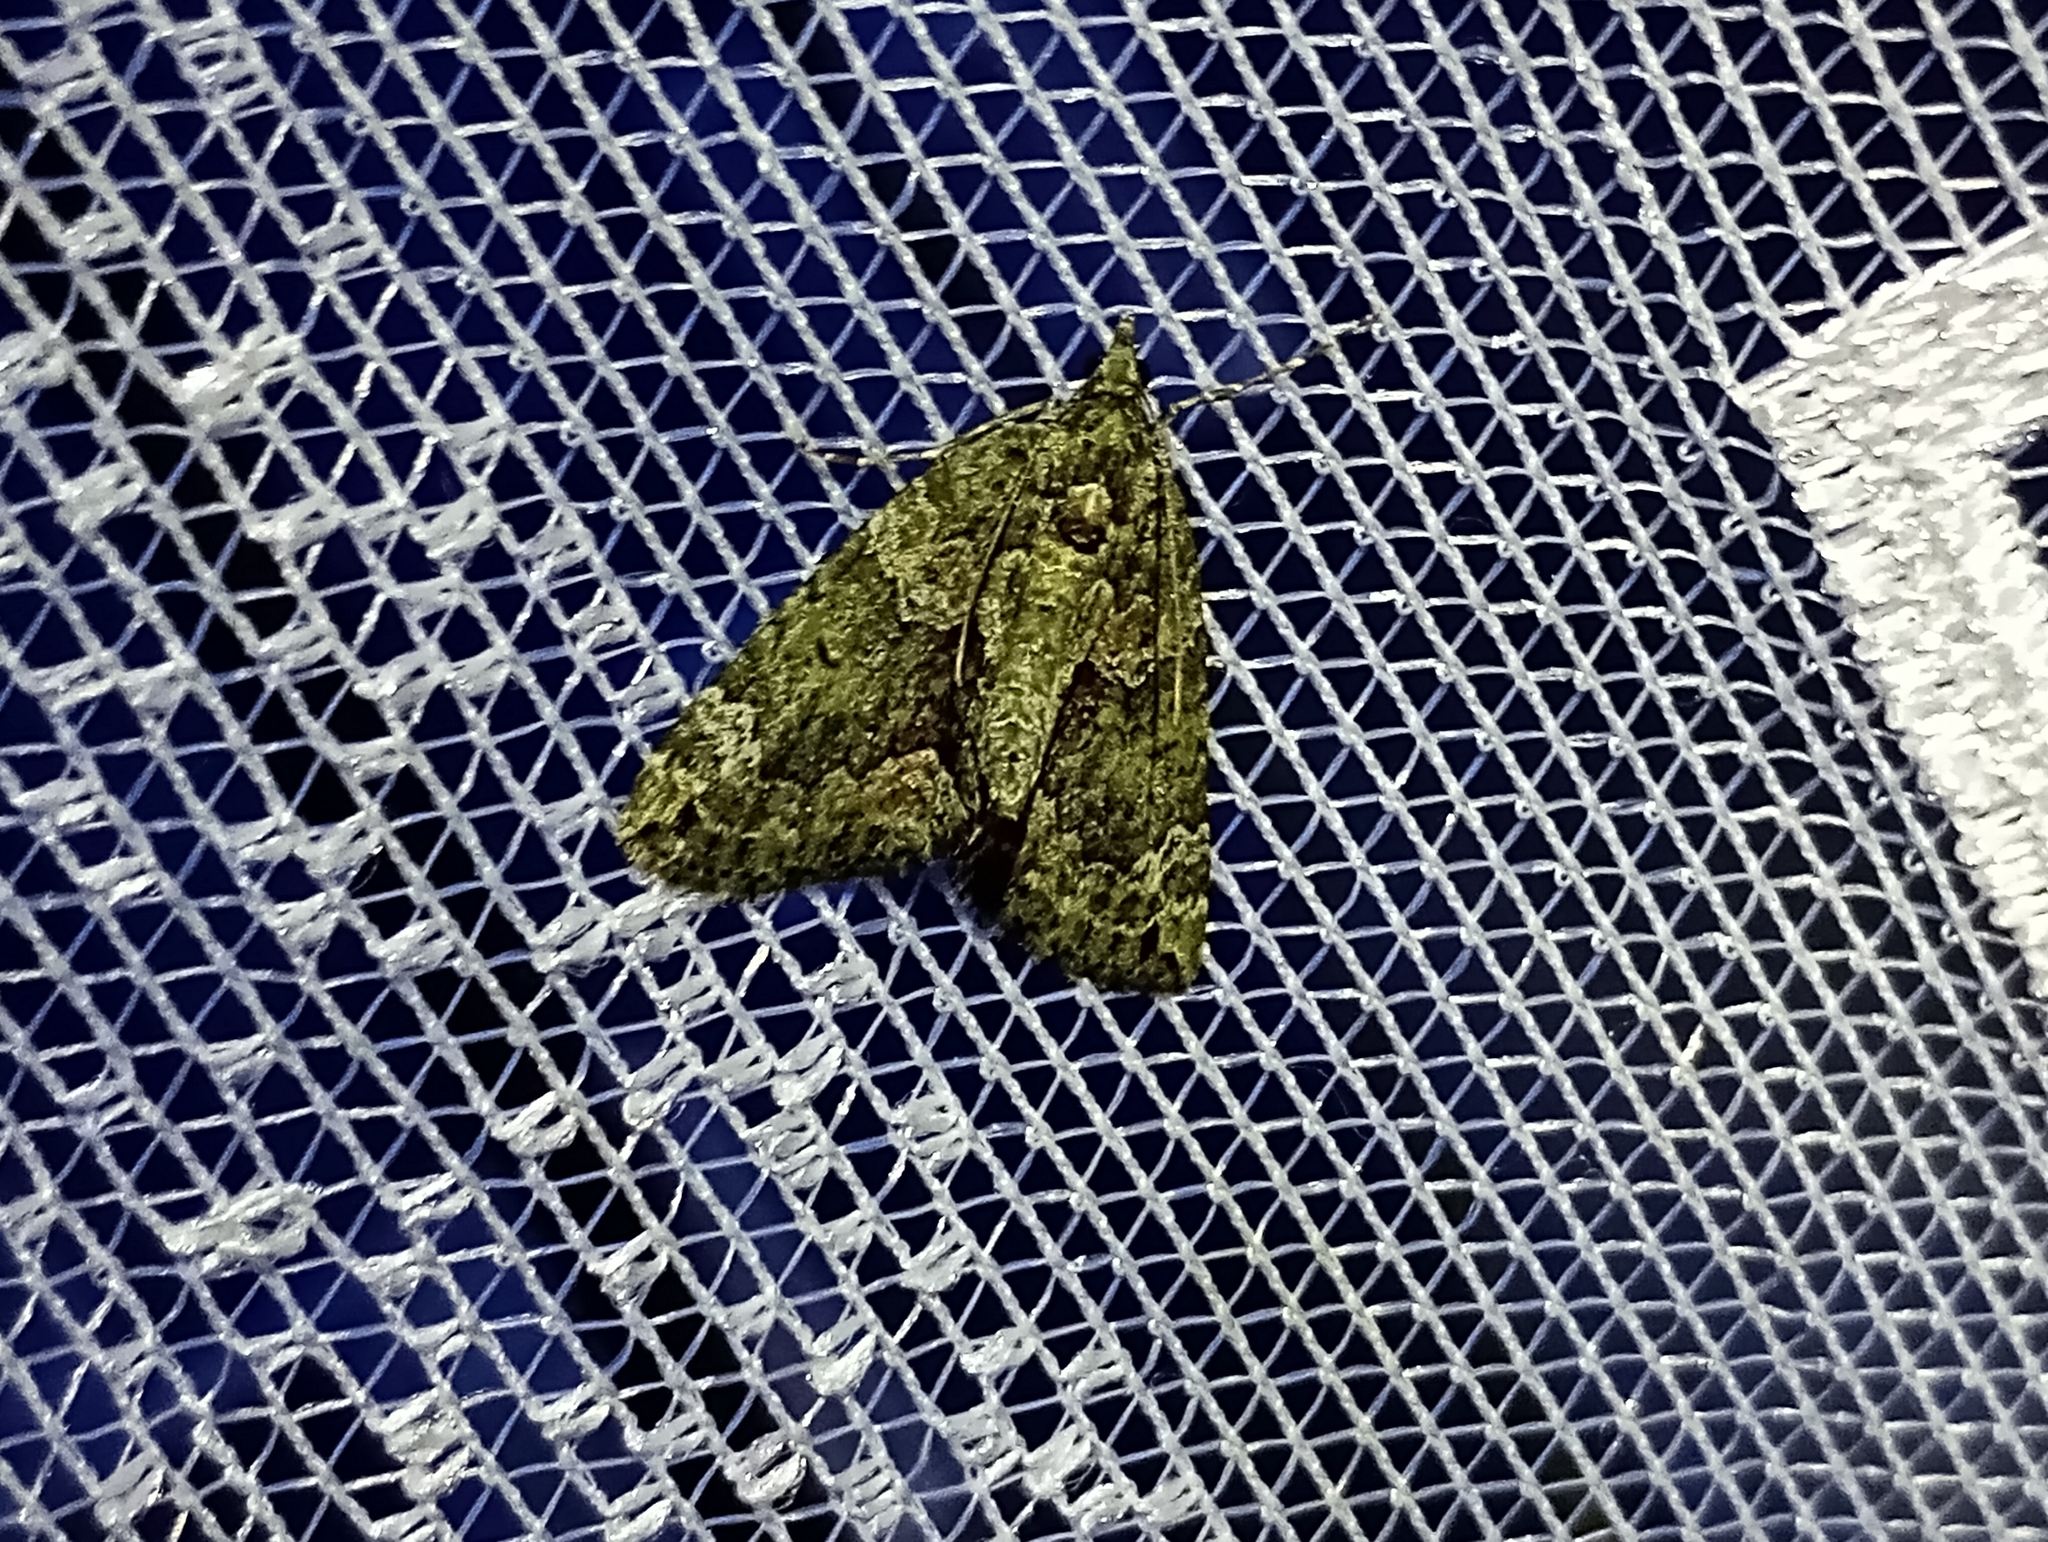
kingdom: Animalia
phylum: Arthropoda
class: Insecta
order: Lepidoptera
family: Geometridae
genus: Chloroclysta
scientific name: Chloroclysta siterata
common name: Red-green carpet
